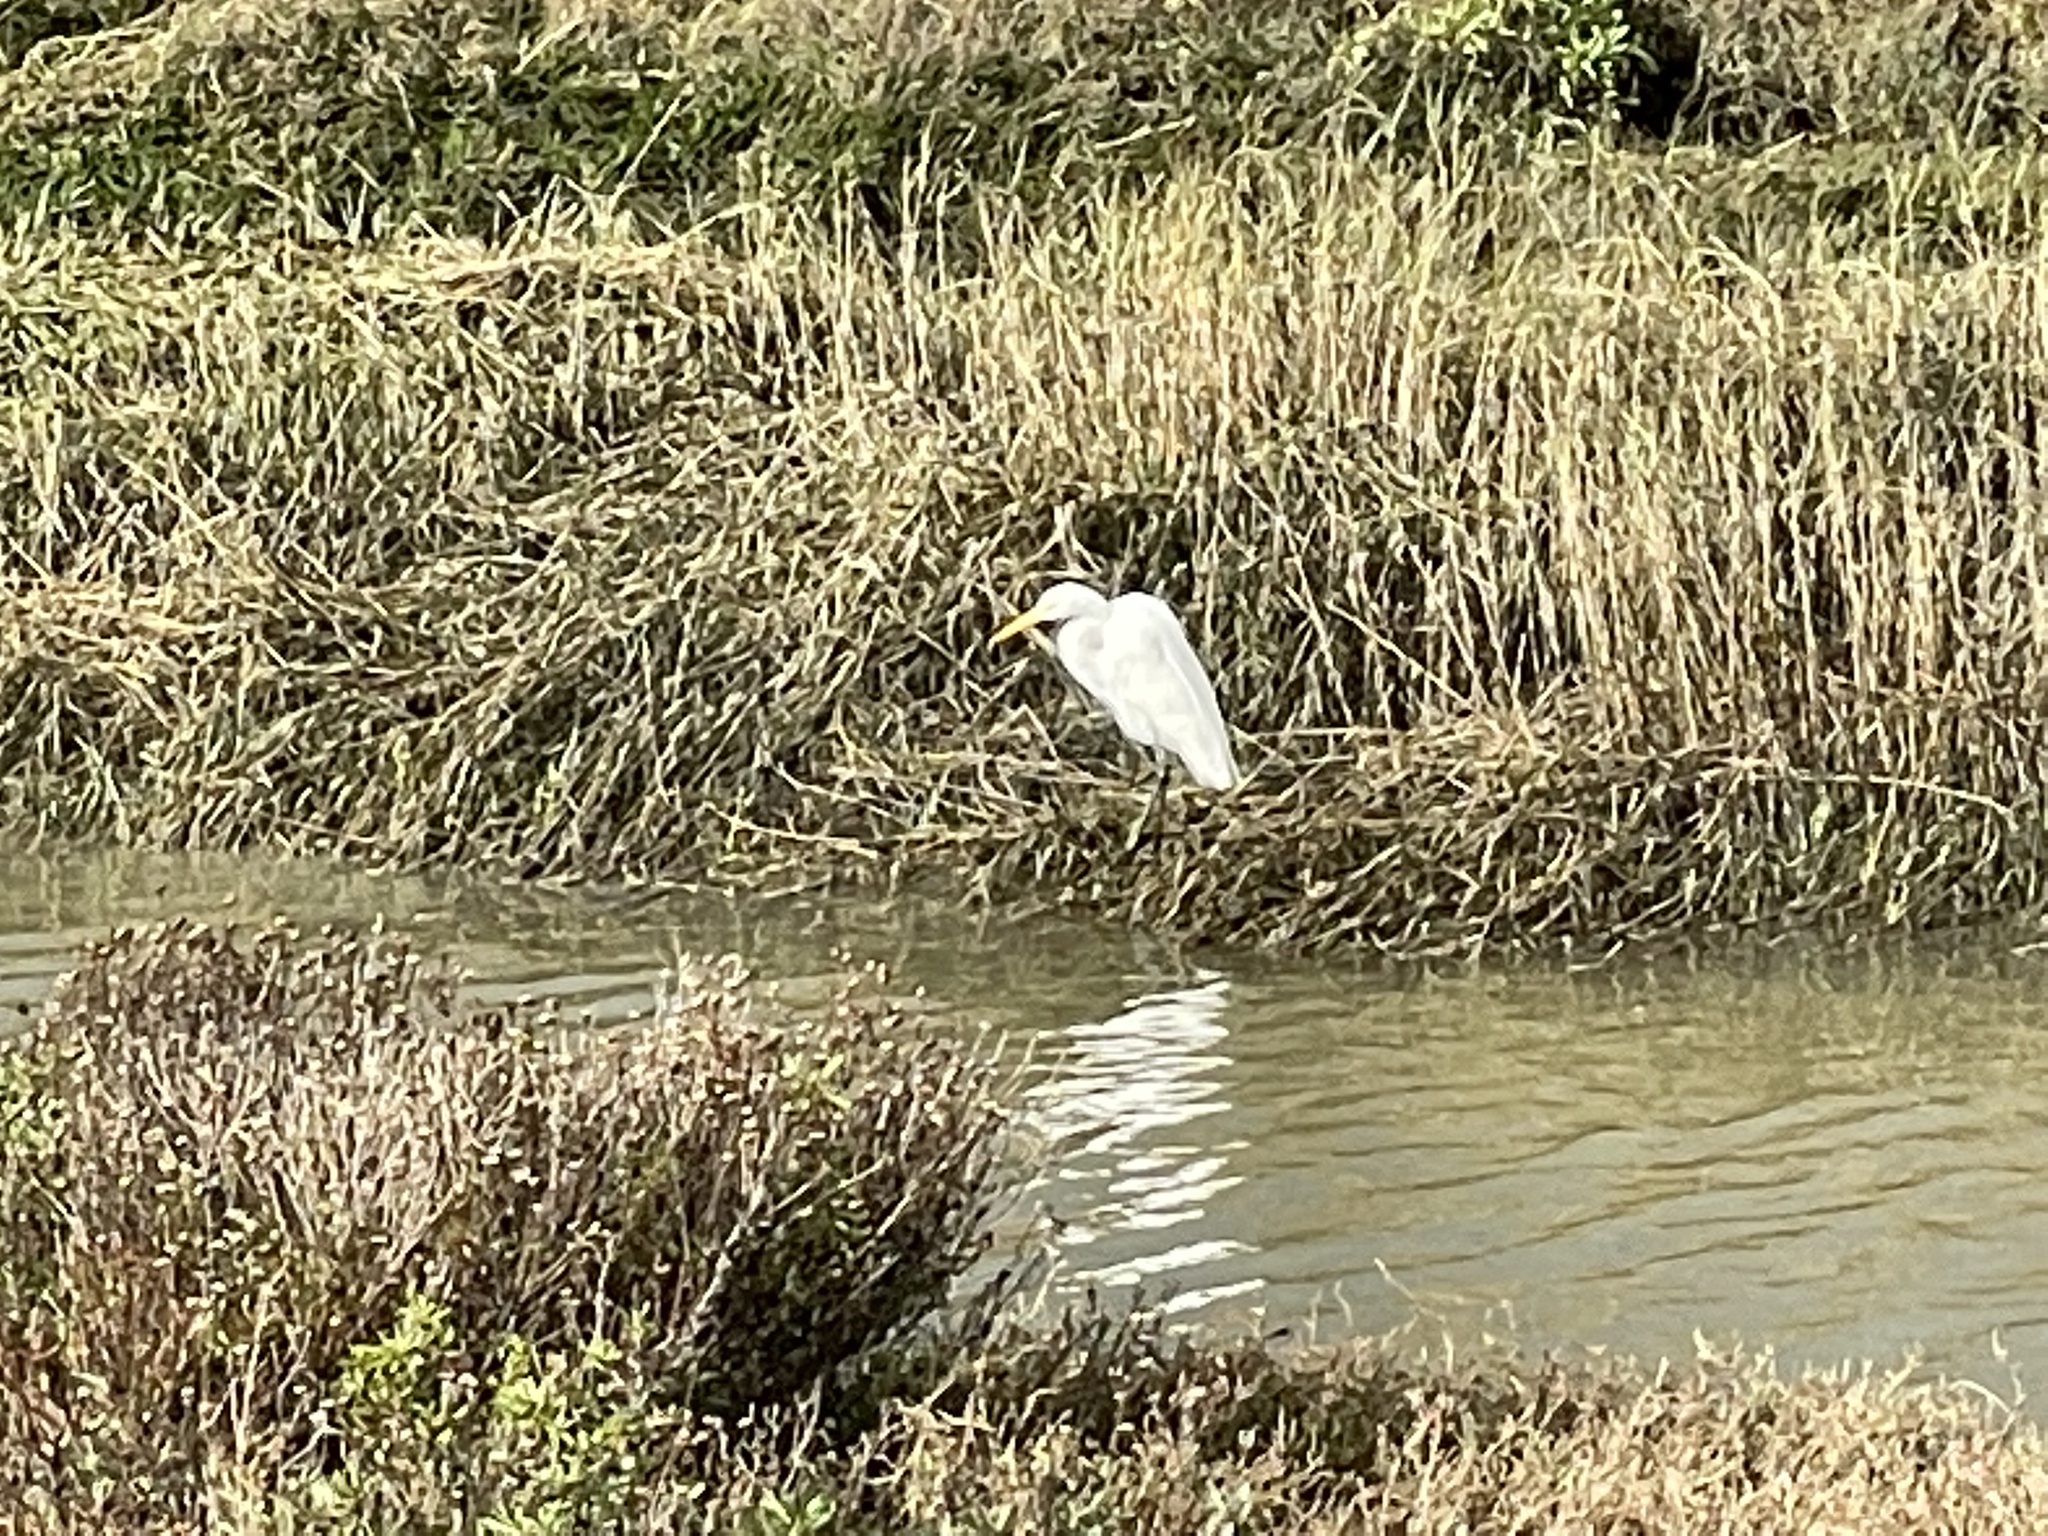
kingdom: Animalia
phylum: Chordata
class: Aves
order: Pelecaniformes
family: Ardeidae
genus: Ardea
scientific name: Ardea alba
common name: Great egret
